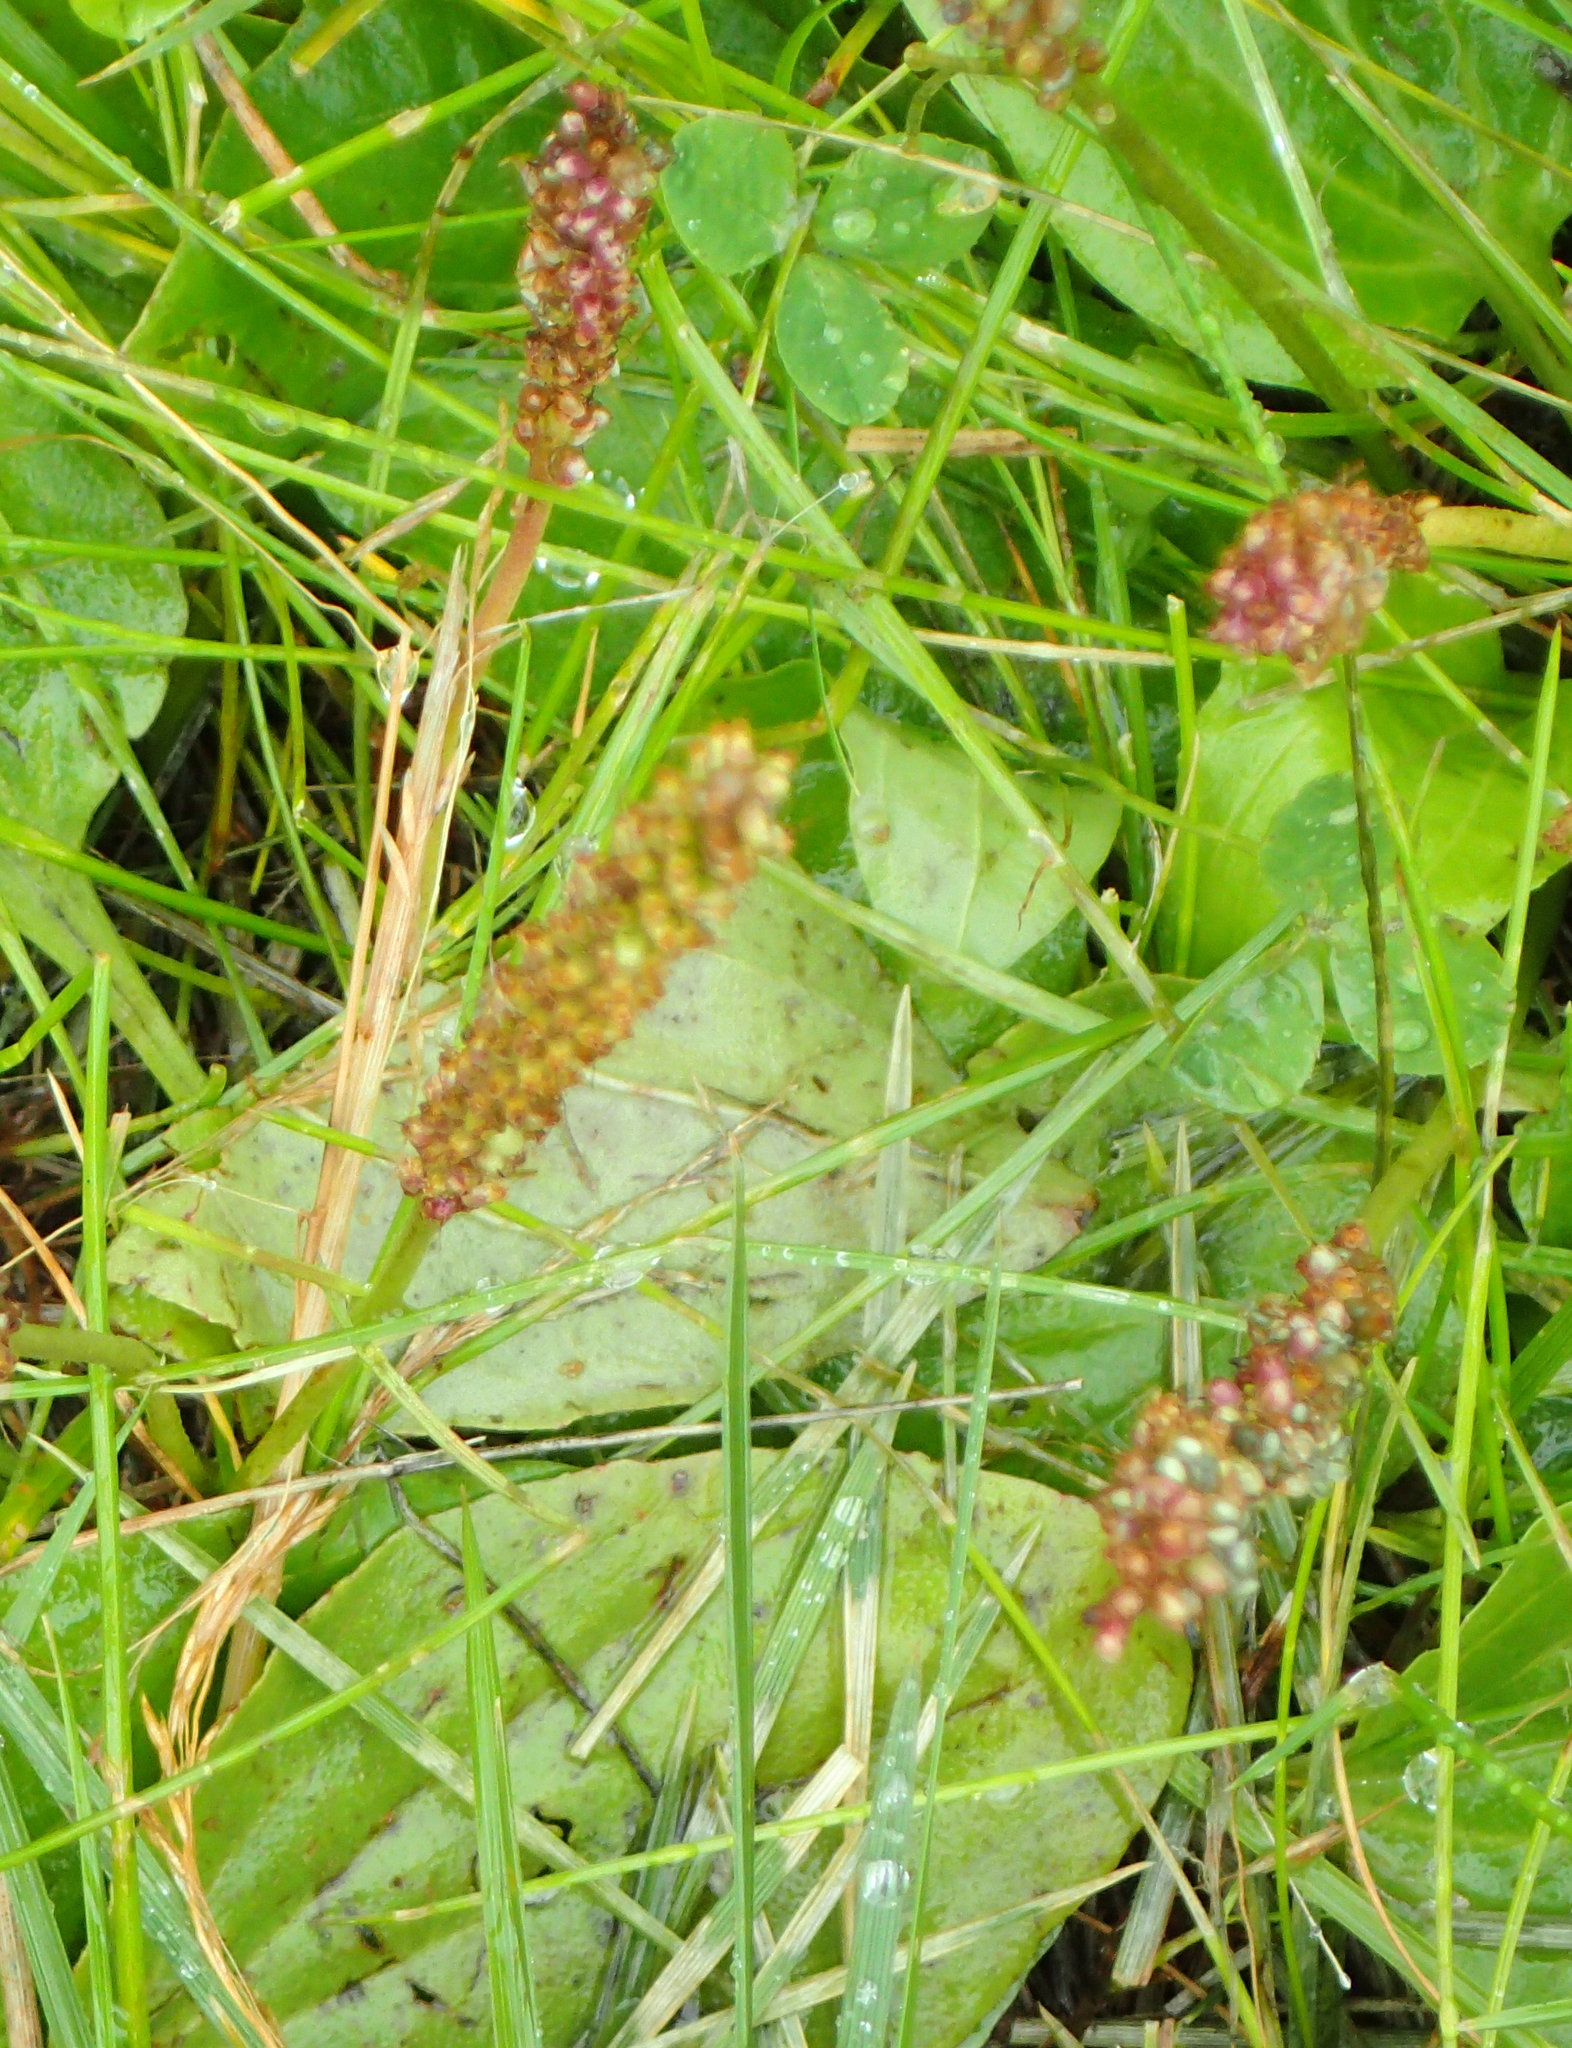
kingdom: Plantae
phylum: Tracheophyta
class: Magnoliopsida
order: Lamiales
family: Plantaginaceae
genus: Plantago
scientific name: Plantago major
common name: Common plantain
